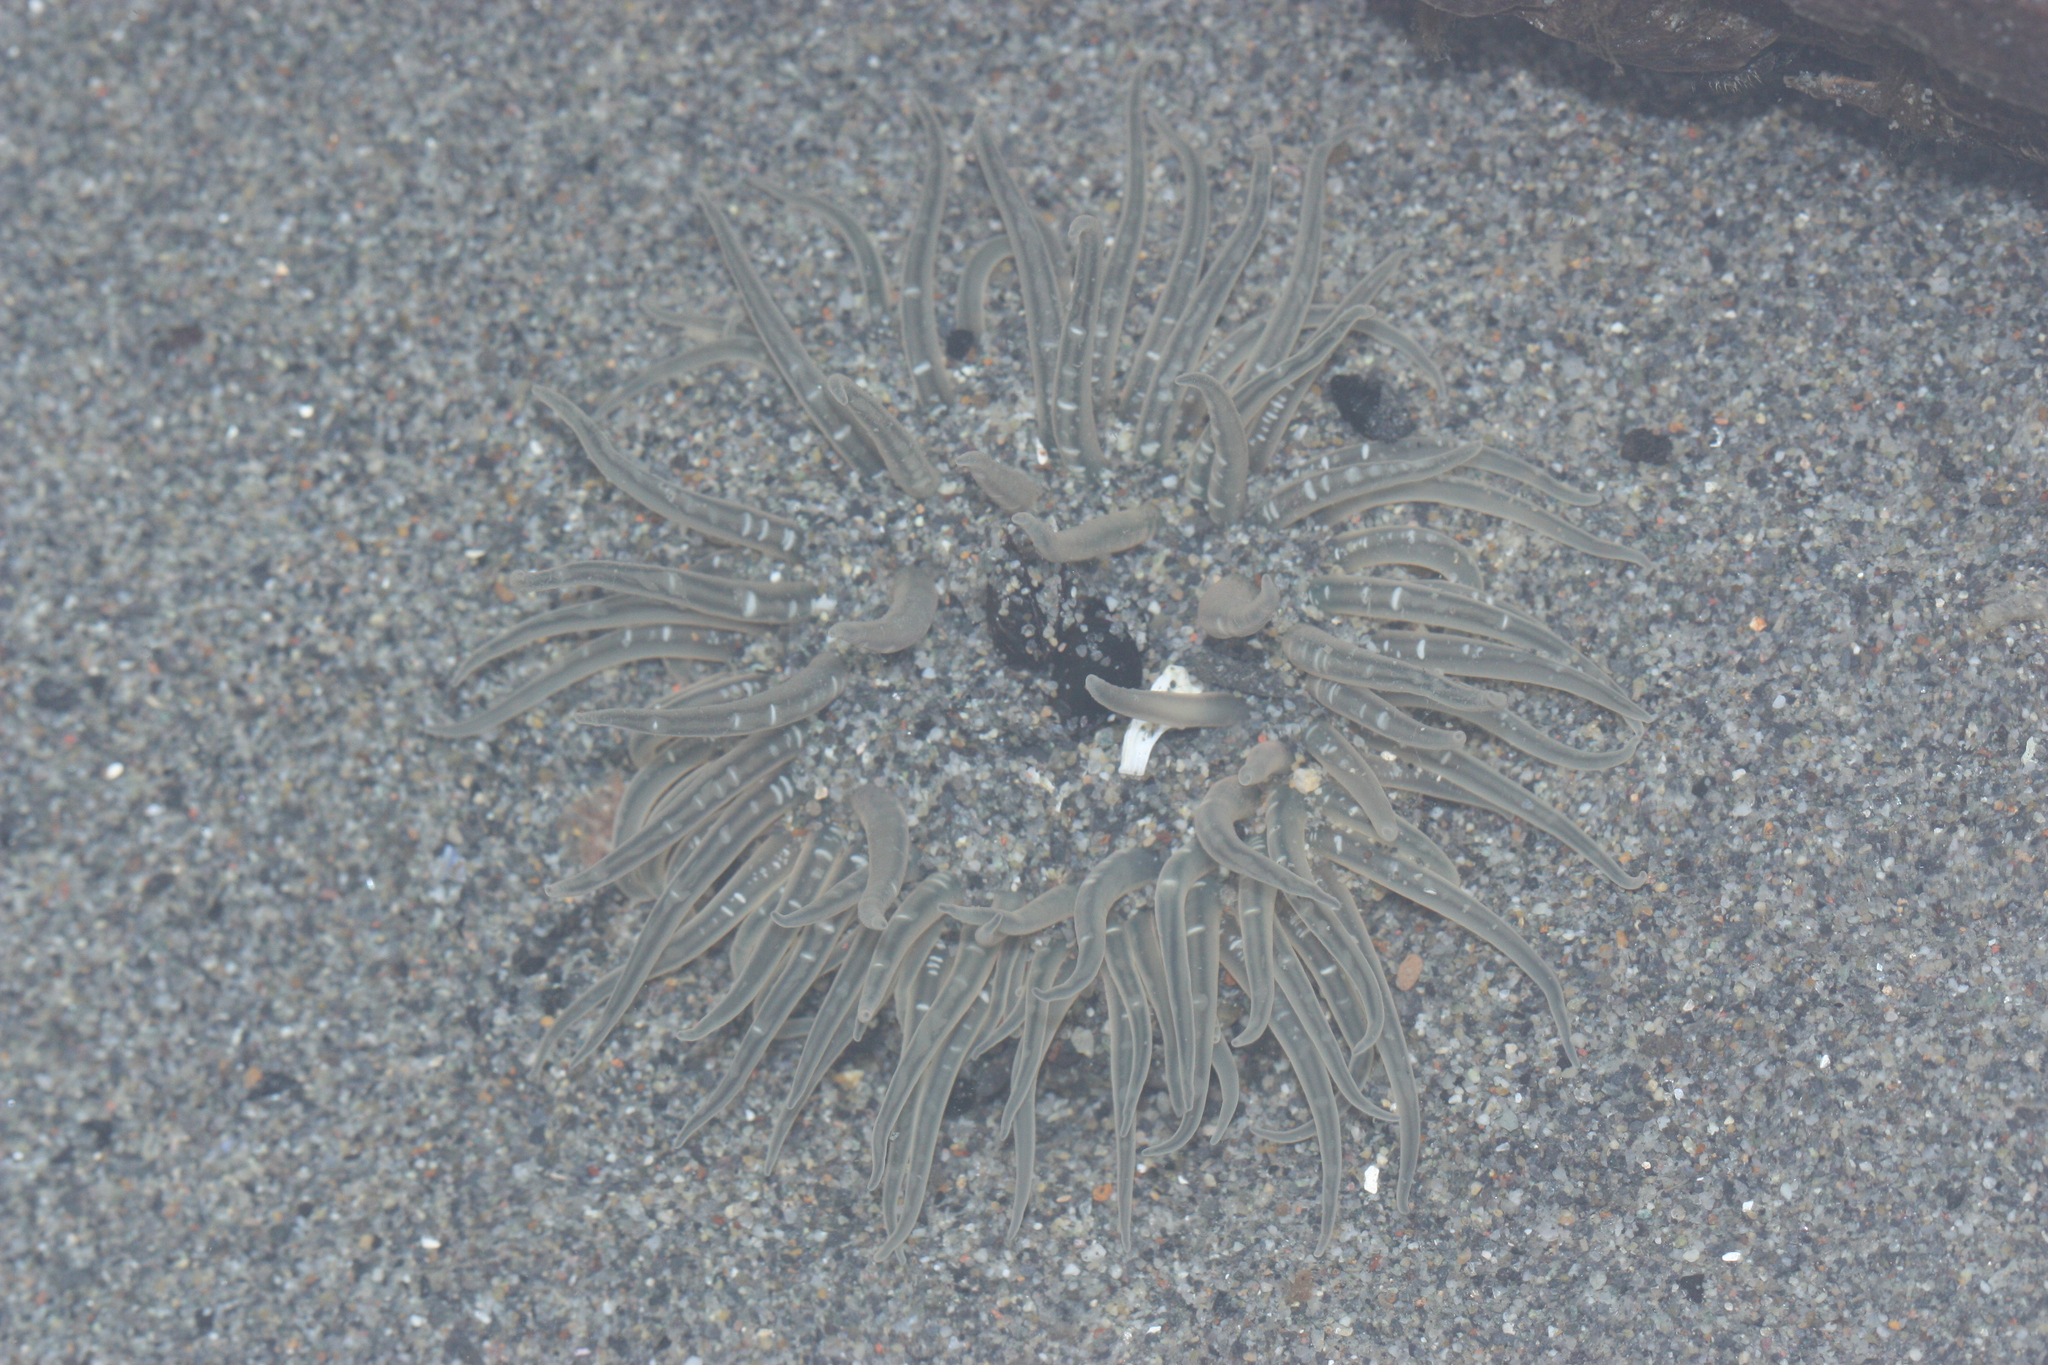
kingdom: Animalia
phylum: Cnidaria
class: Anthozoa
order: Actiniaria
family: Actiniidae
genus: Anthopleura
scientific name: Anthopleura artemisia
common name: Buried sea anemone
